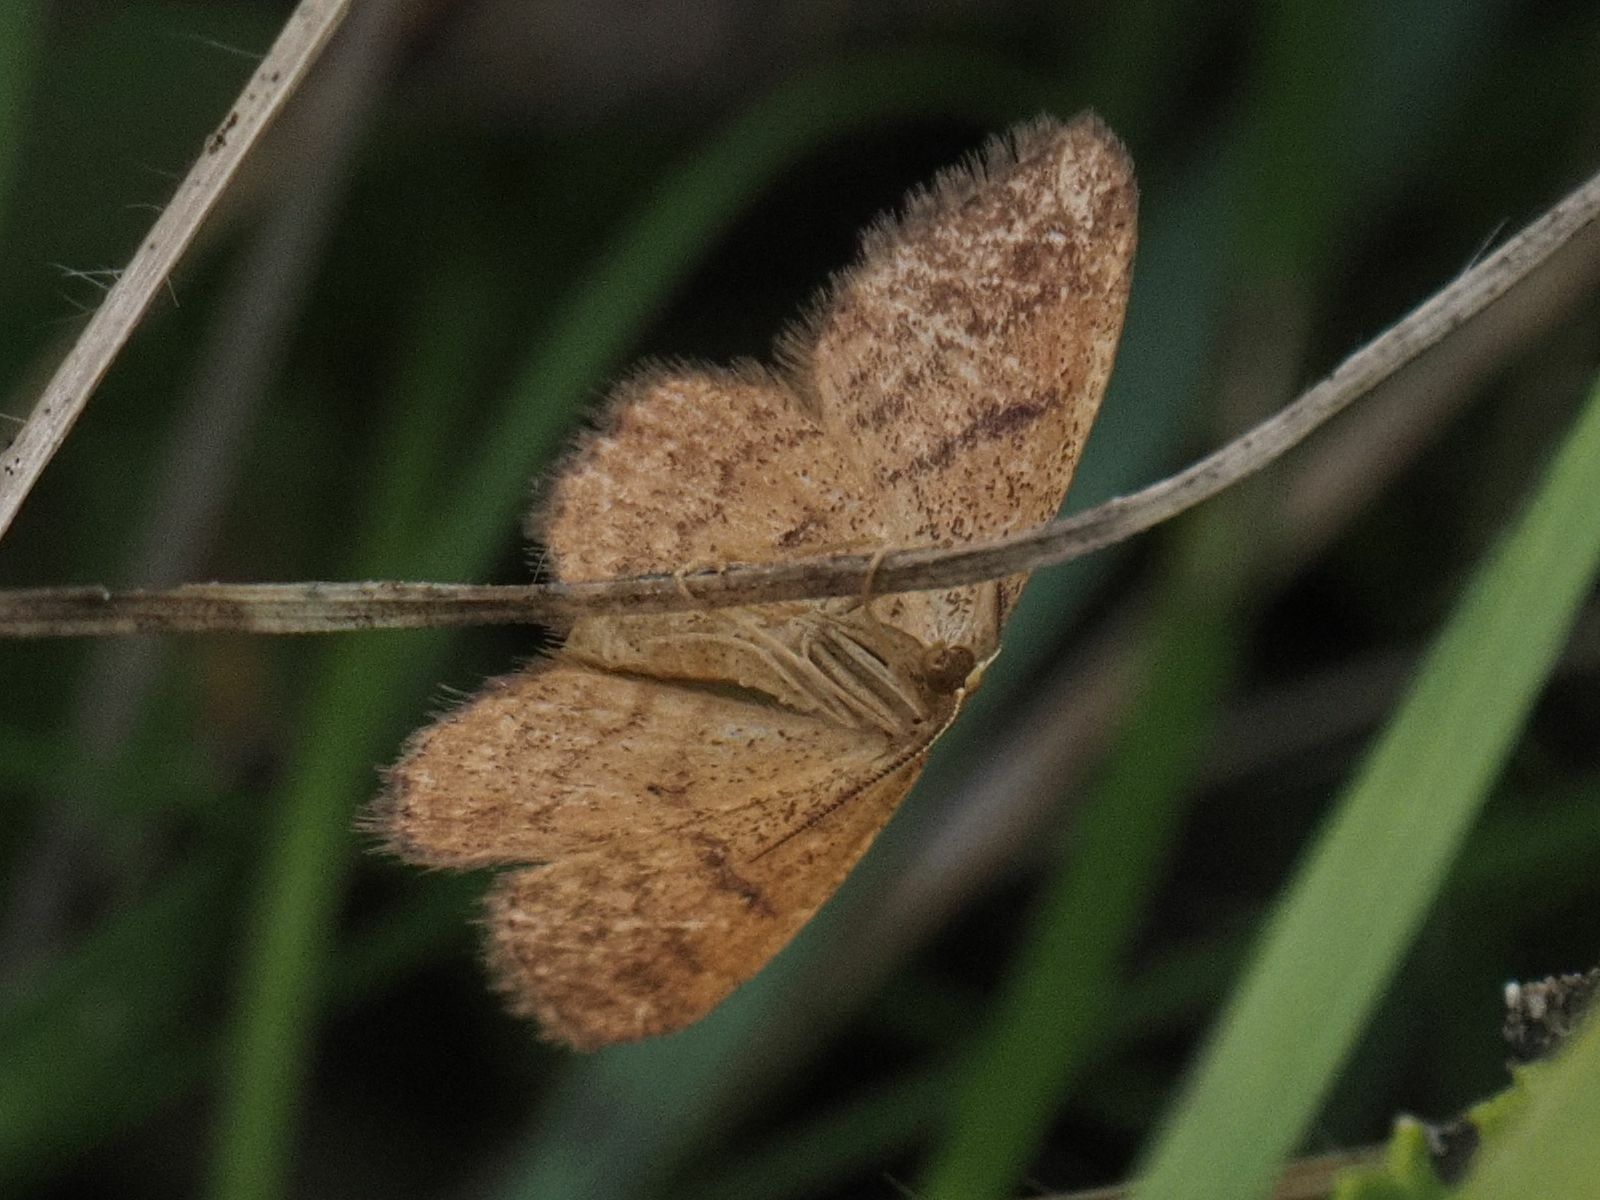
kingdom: Animalia
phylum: Arthropoda
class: Insecta
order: Lepidoptera
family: Geometridae
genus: Idaea
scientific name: Idaea serpentata
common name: Ochraceous wave
